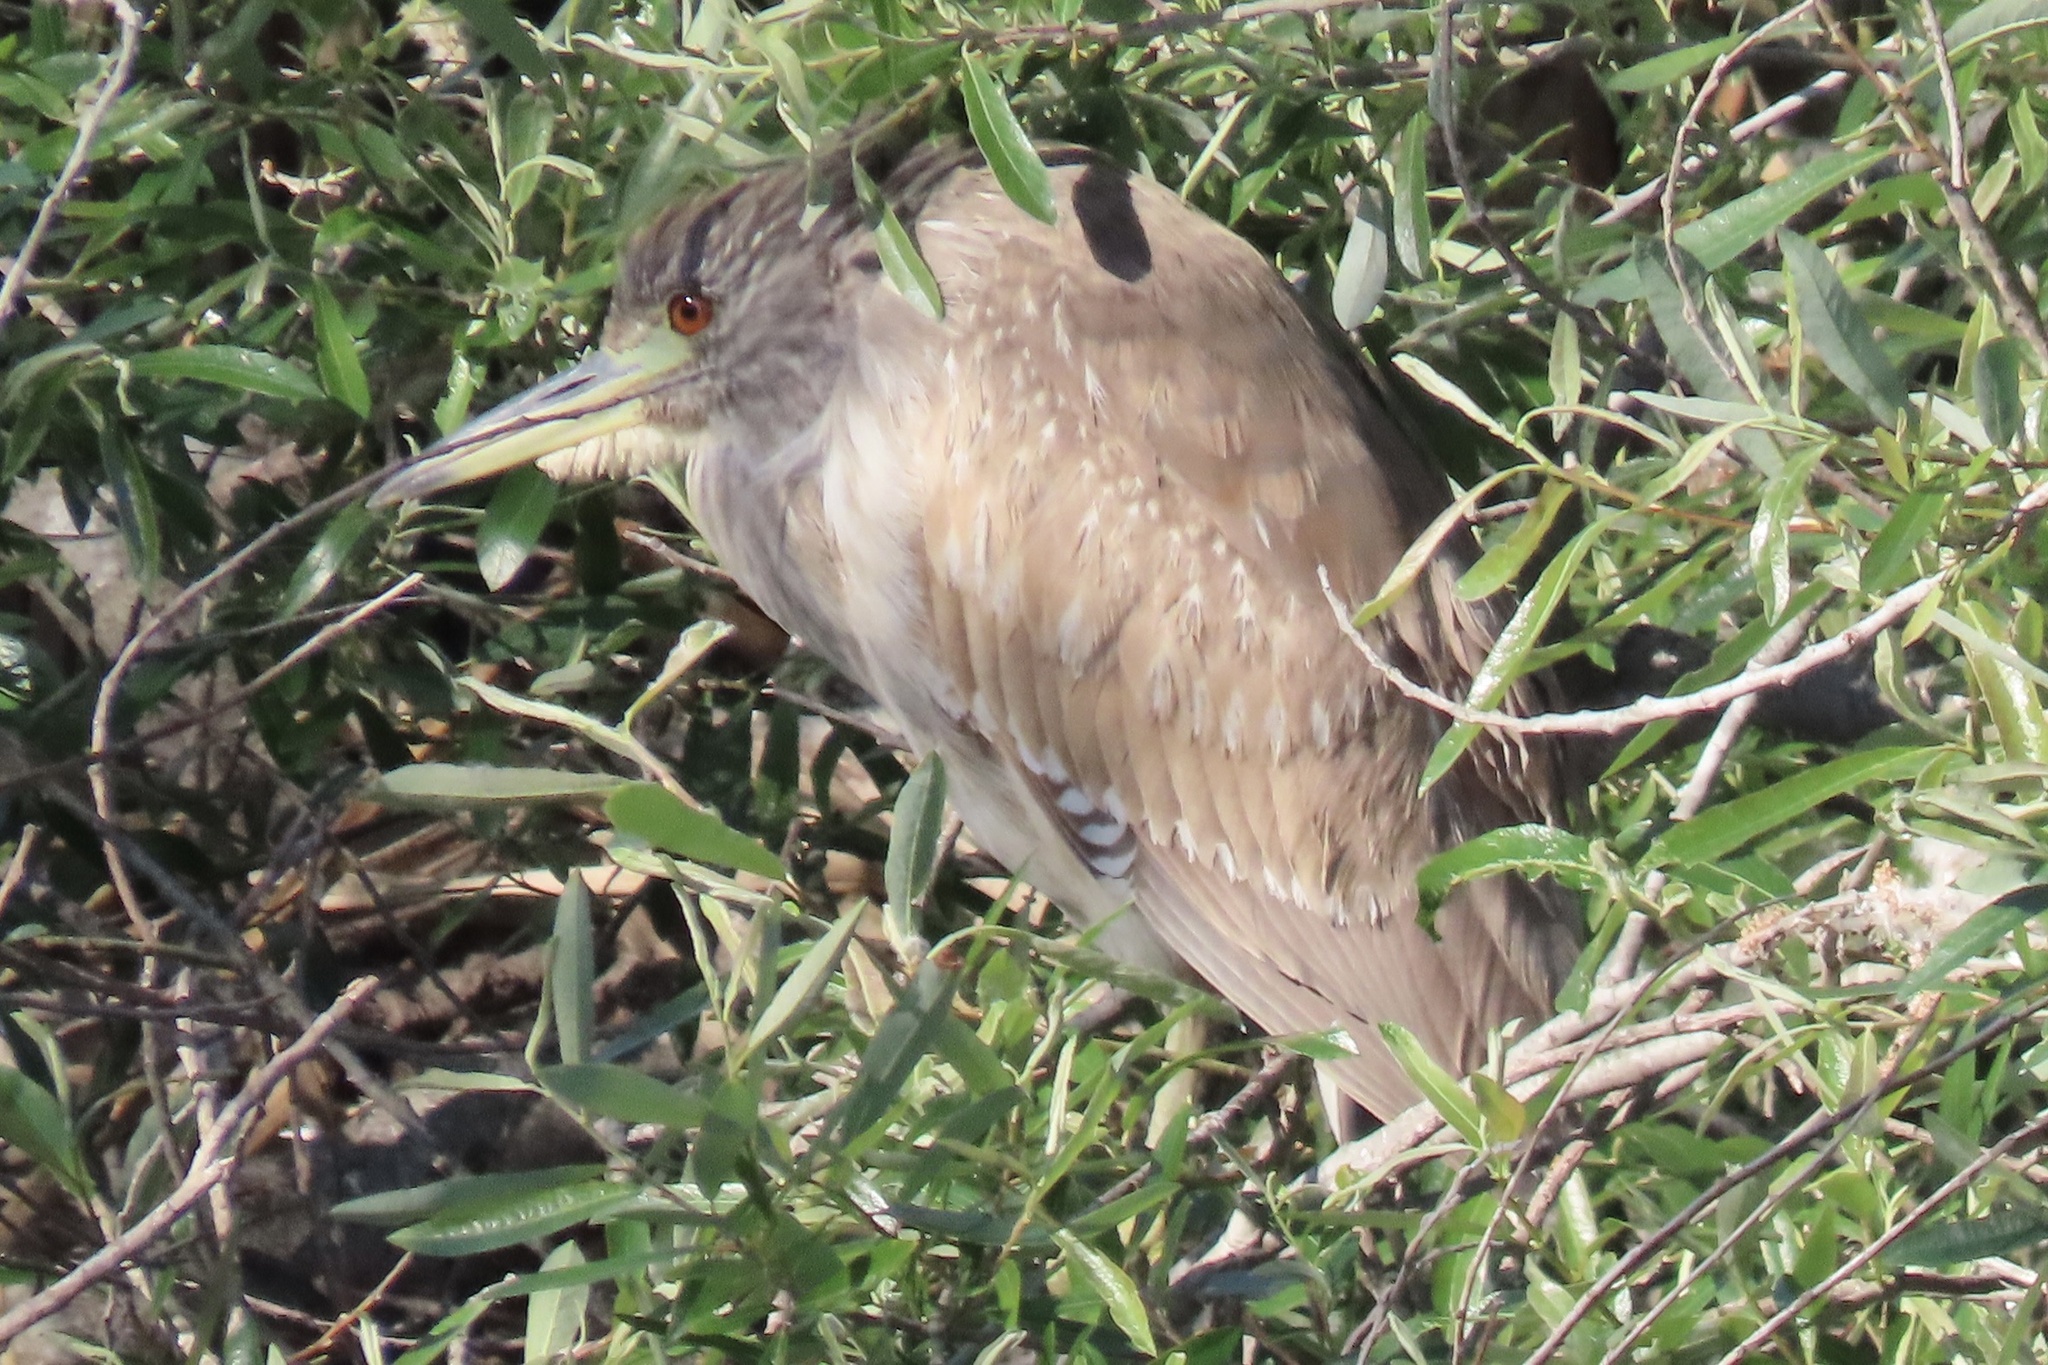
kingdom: Animalia
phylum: Chordata
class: Aves
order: Pelecaniformes
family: Ardeidae
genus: Nycticorax
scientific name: Nycticorax nycticorax
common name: Black-crowned night heron
